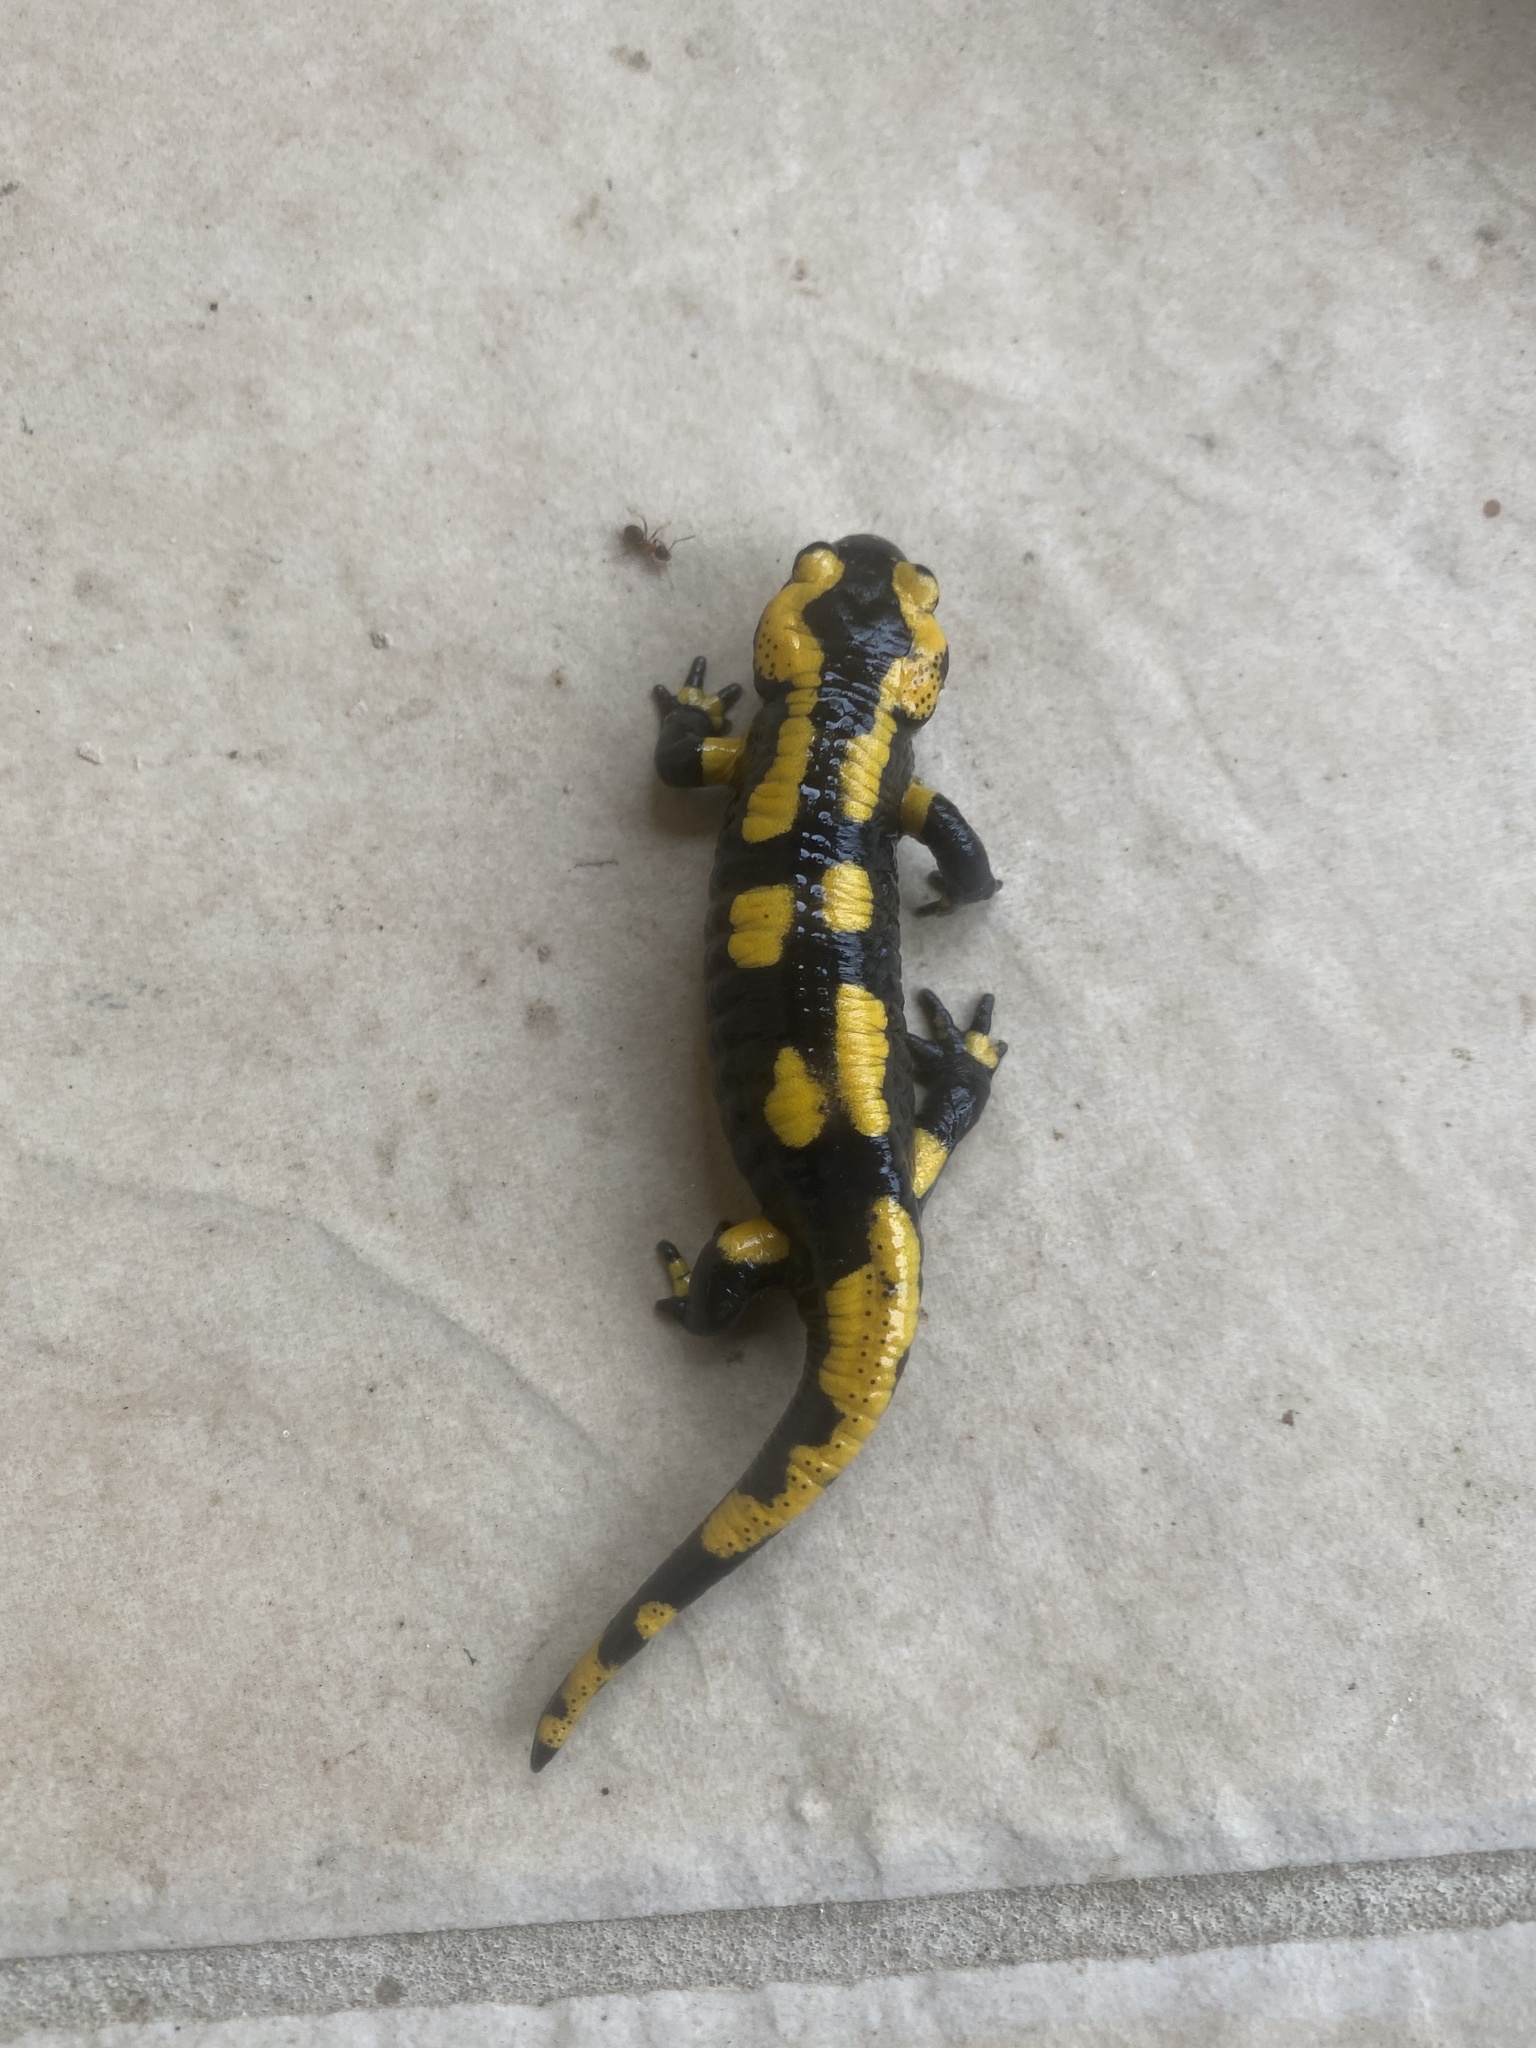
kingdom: Animalia
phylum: Chordata
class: Amphibia
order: Caudata
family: Salamandridae
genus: Salamandra
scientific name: Salamandra salamandra
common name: Fire salamander
